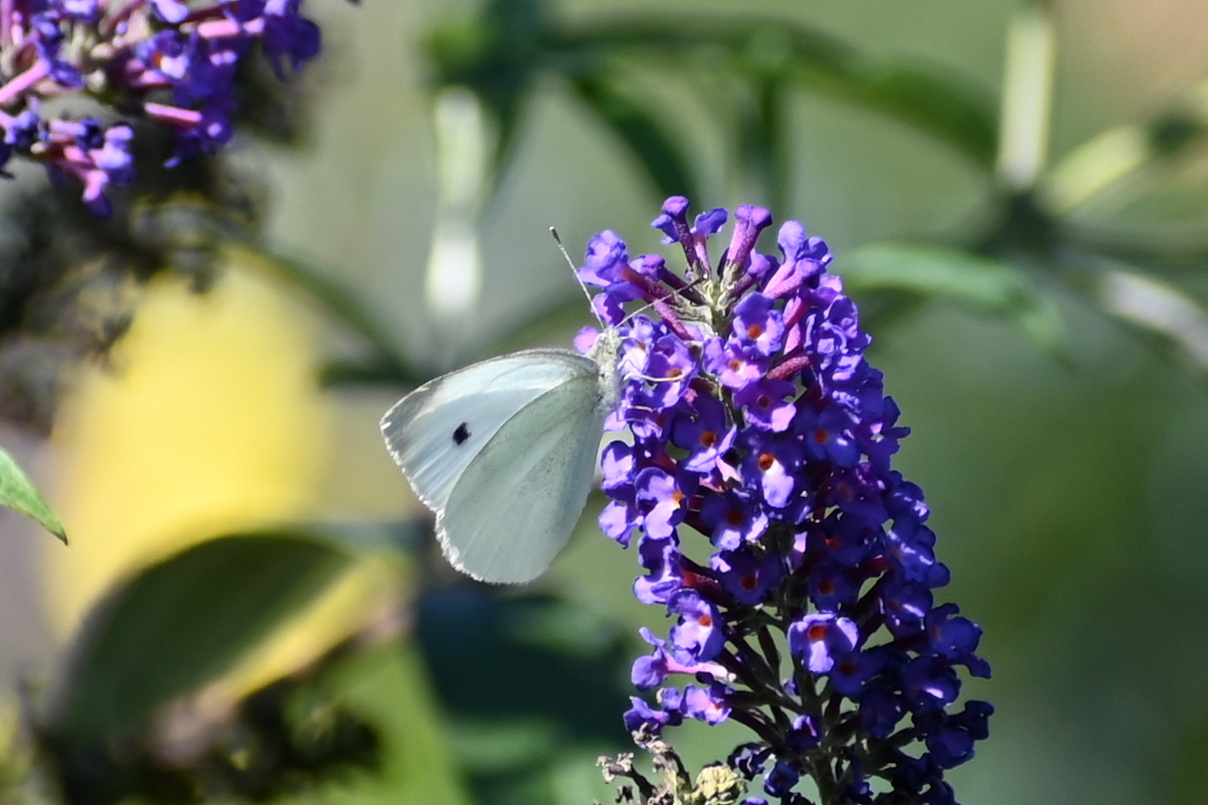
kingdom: Animalia
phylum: Arthropoda
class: Insecta
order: Lepidoptera
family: Pieridae
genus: Pieris
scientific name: Pieris rapae
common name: Small white
